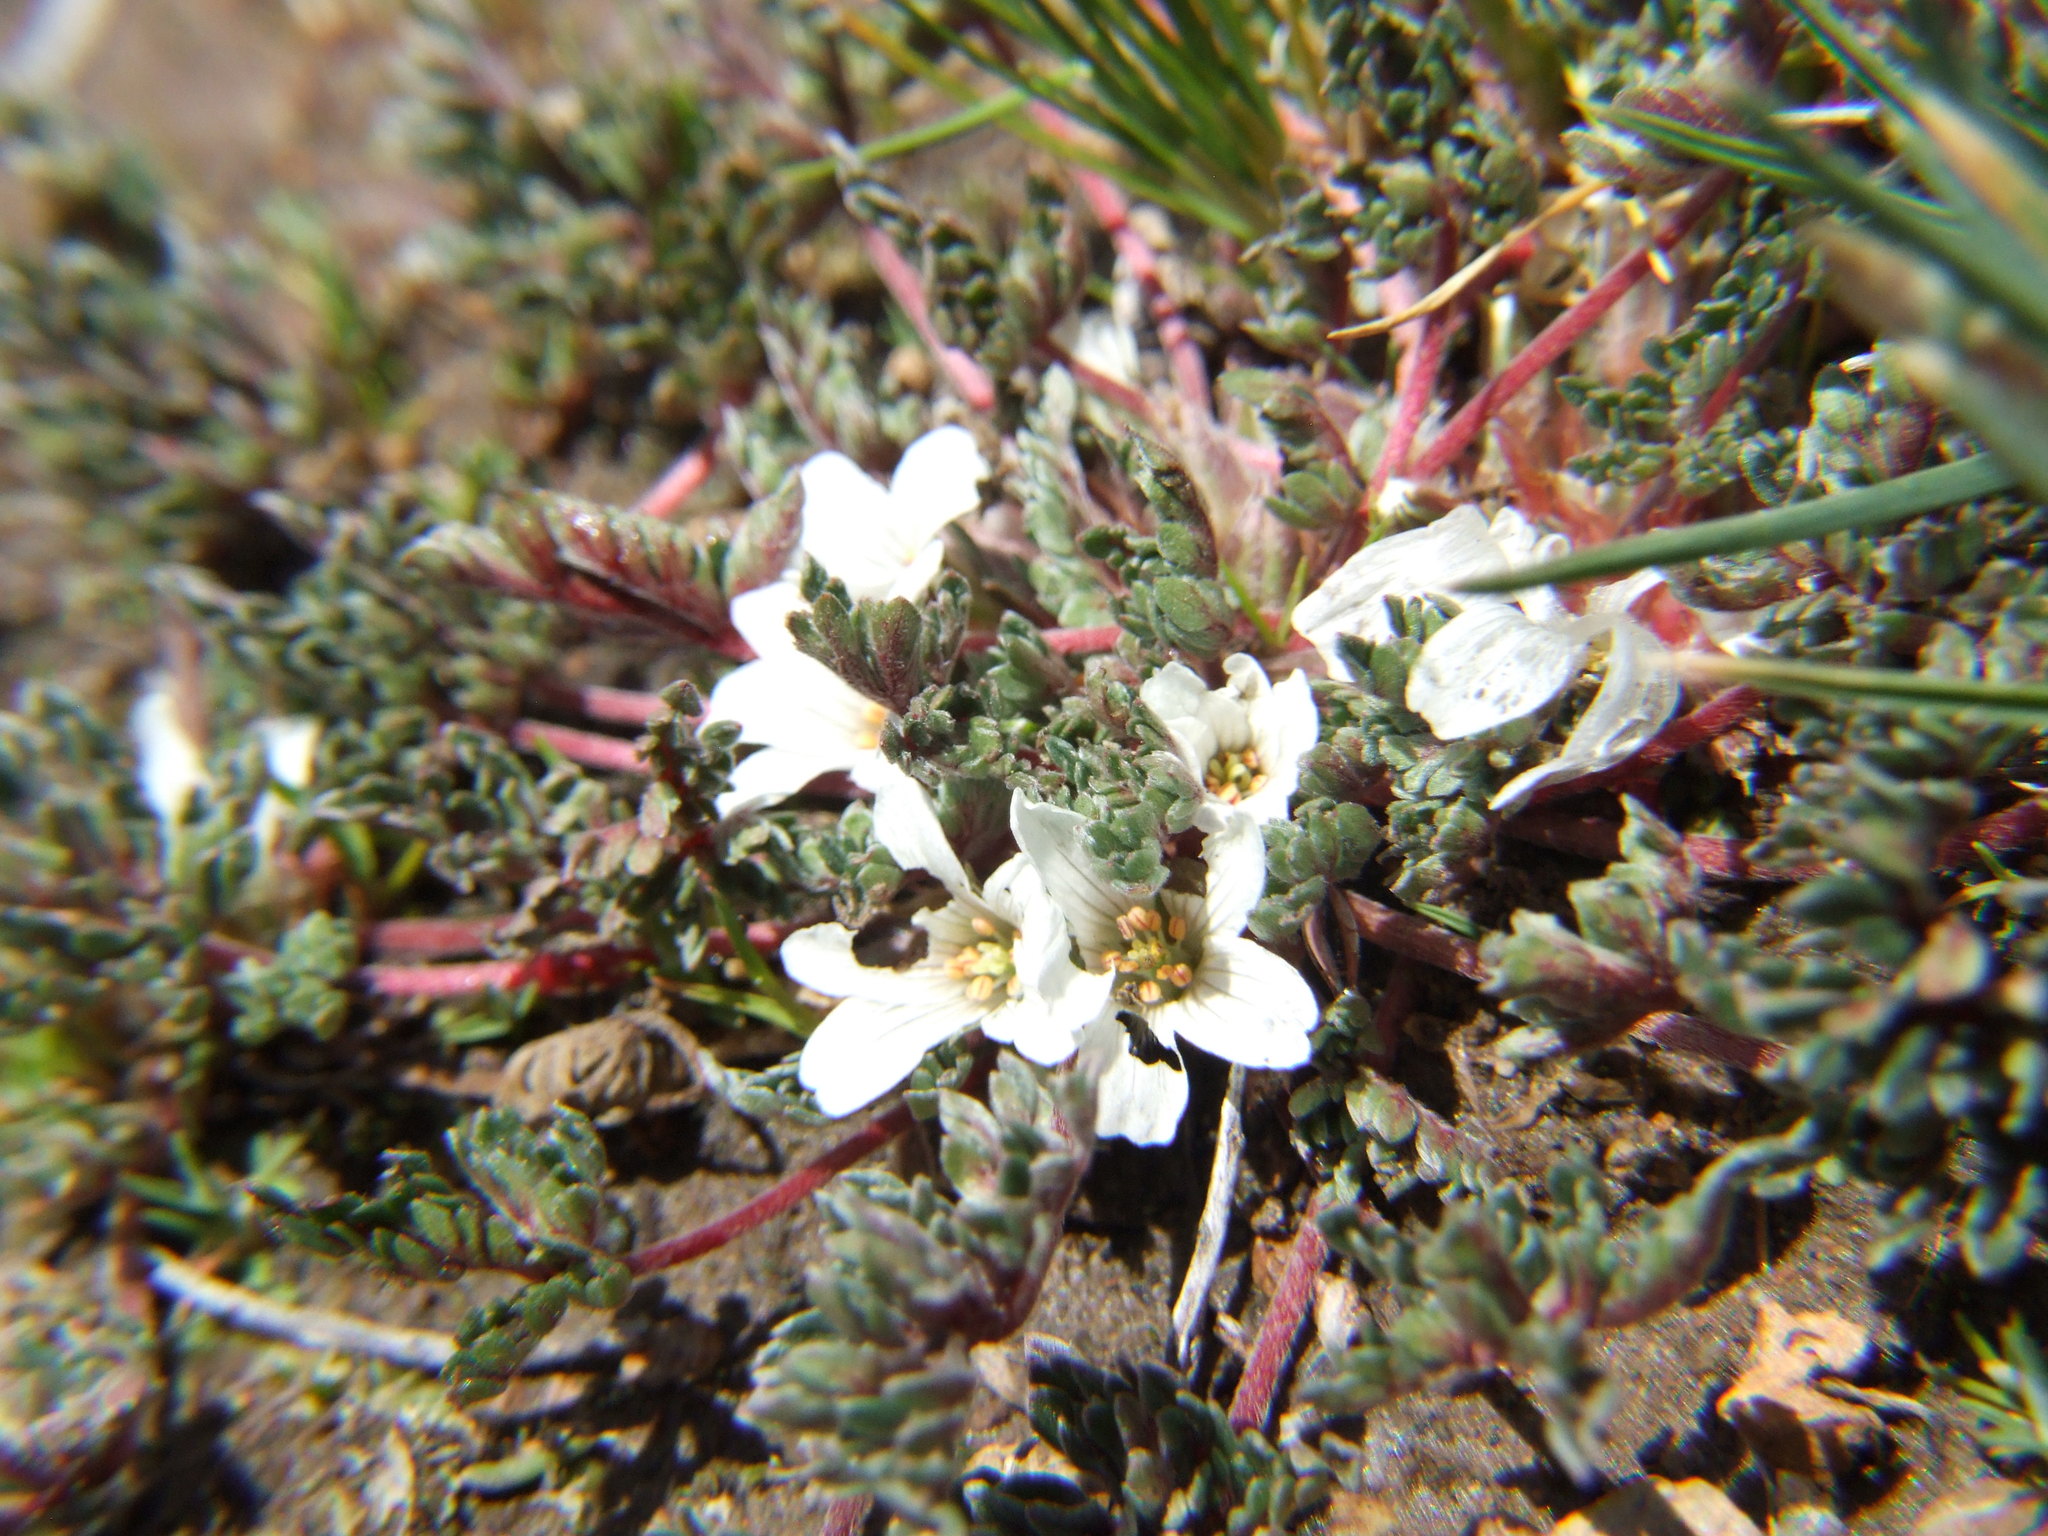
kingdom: Plantae
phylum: Tracheophyta
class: Magnoliopsida
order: Geraniales
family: Geraniaceae
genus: Geranium
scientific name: Geranium sessiliflorum
